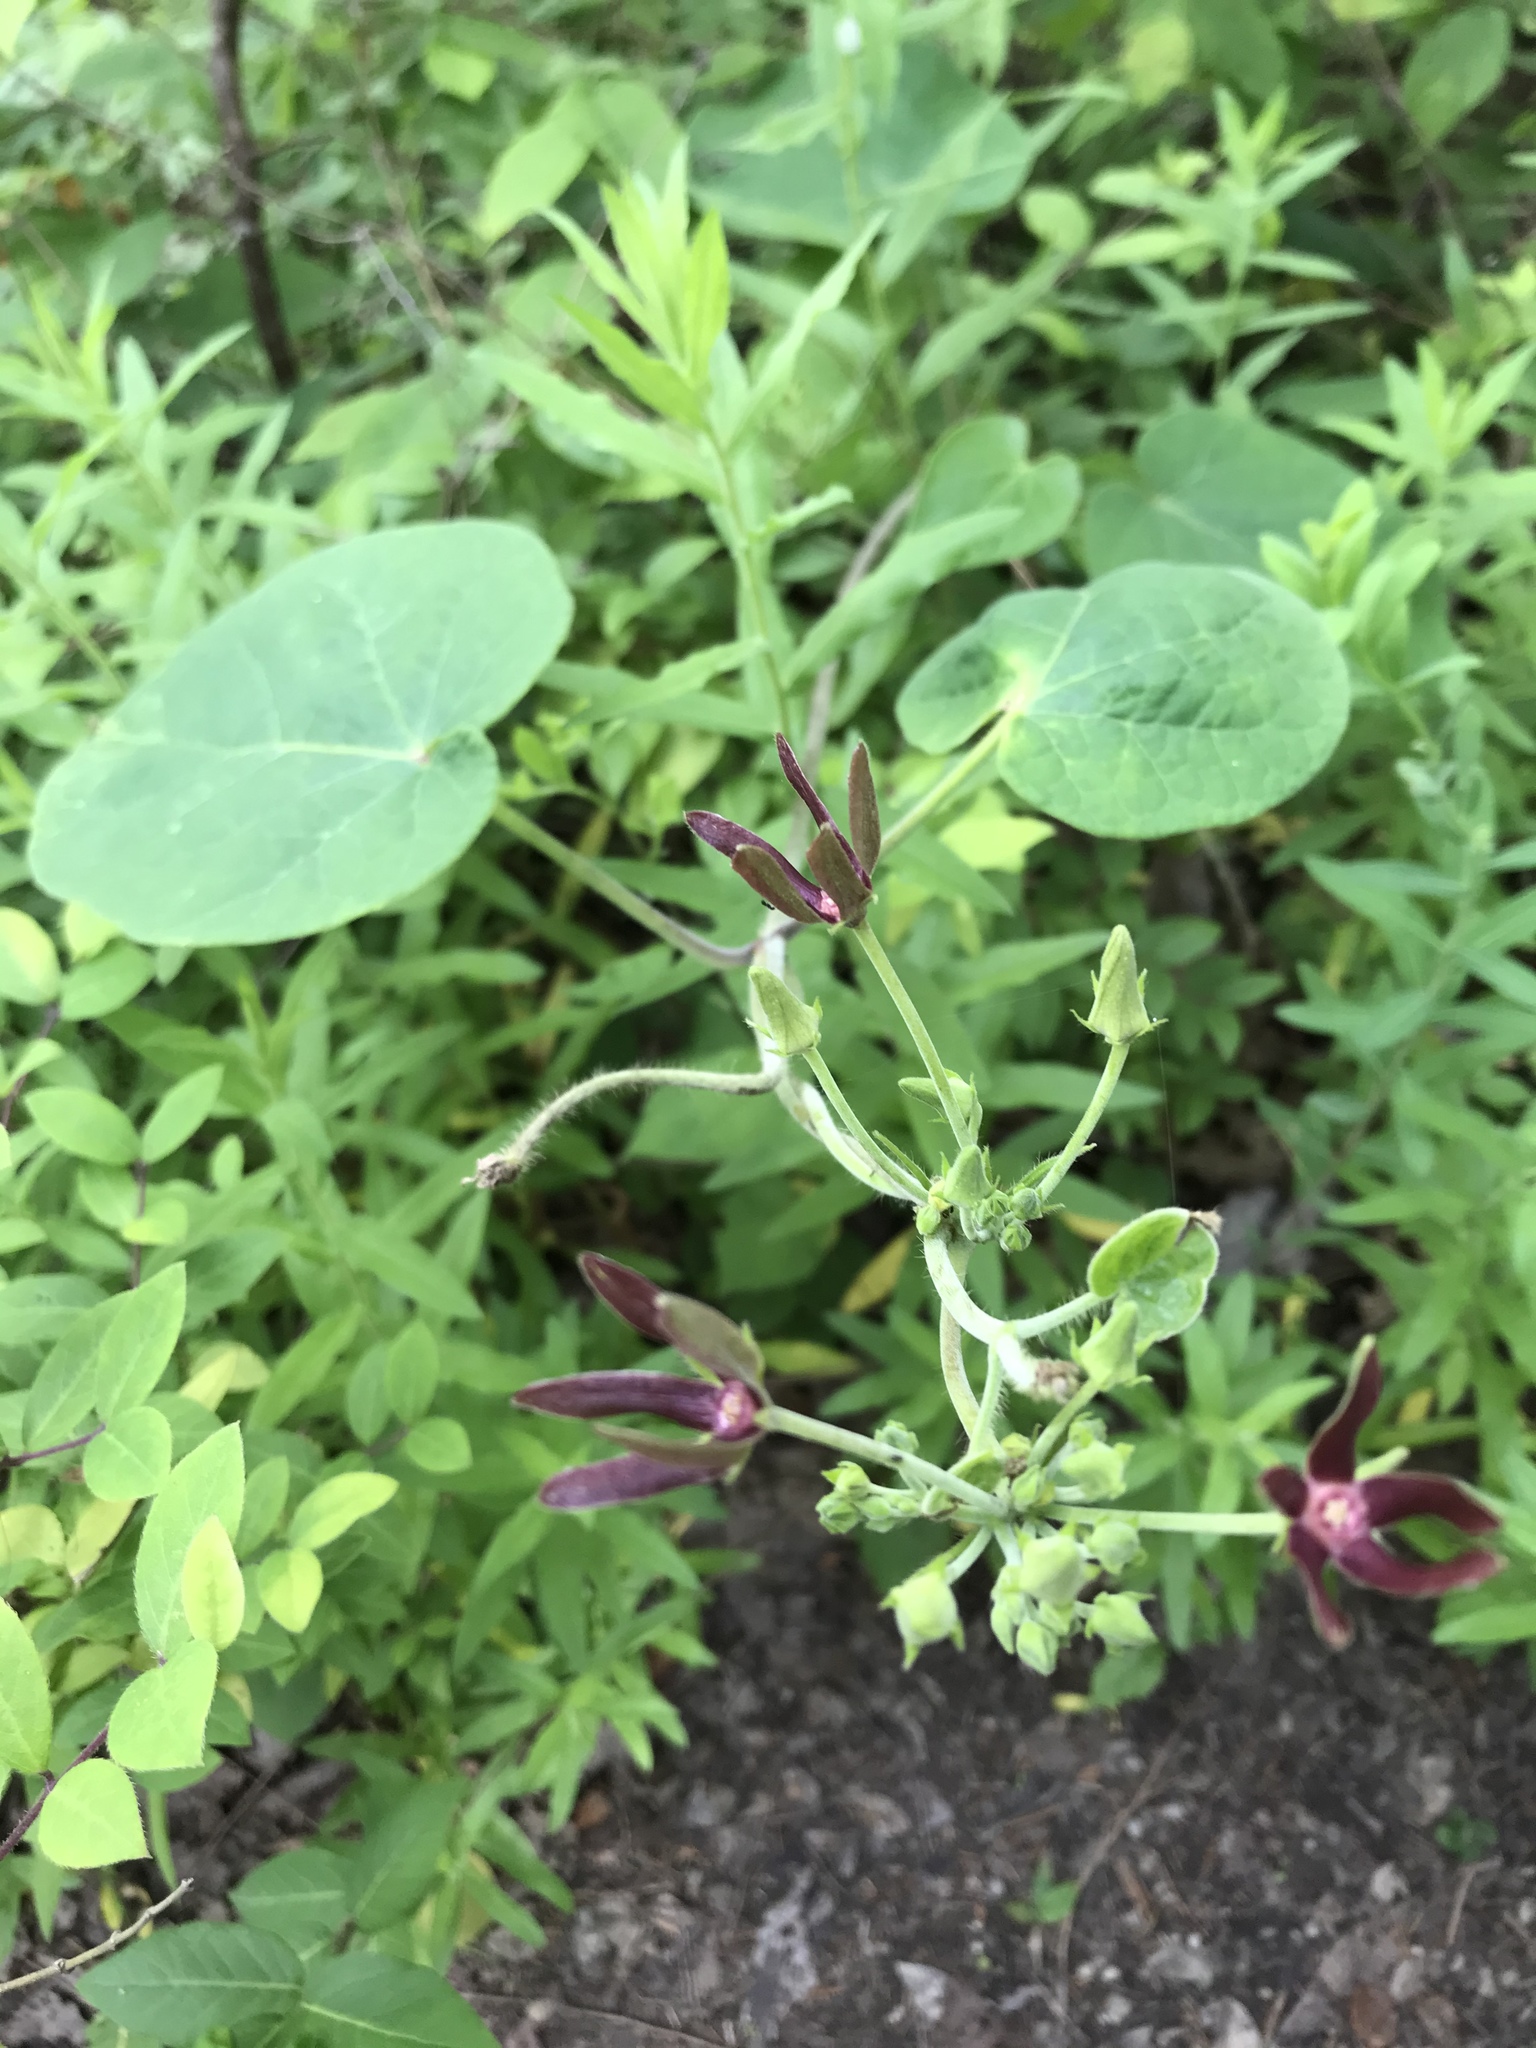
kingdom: Plantae
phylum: Tracheophyta
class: Magnoliopsida
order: Gentianales
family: Apocynaceae
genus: Matelea
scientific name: Matelea obliqua
